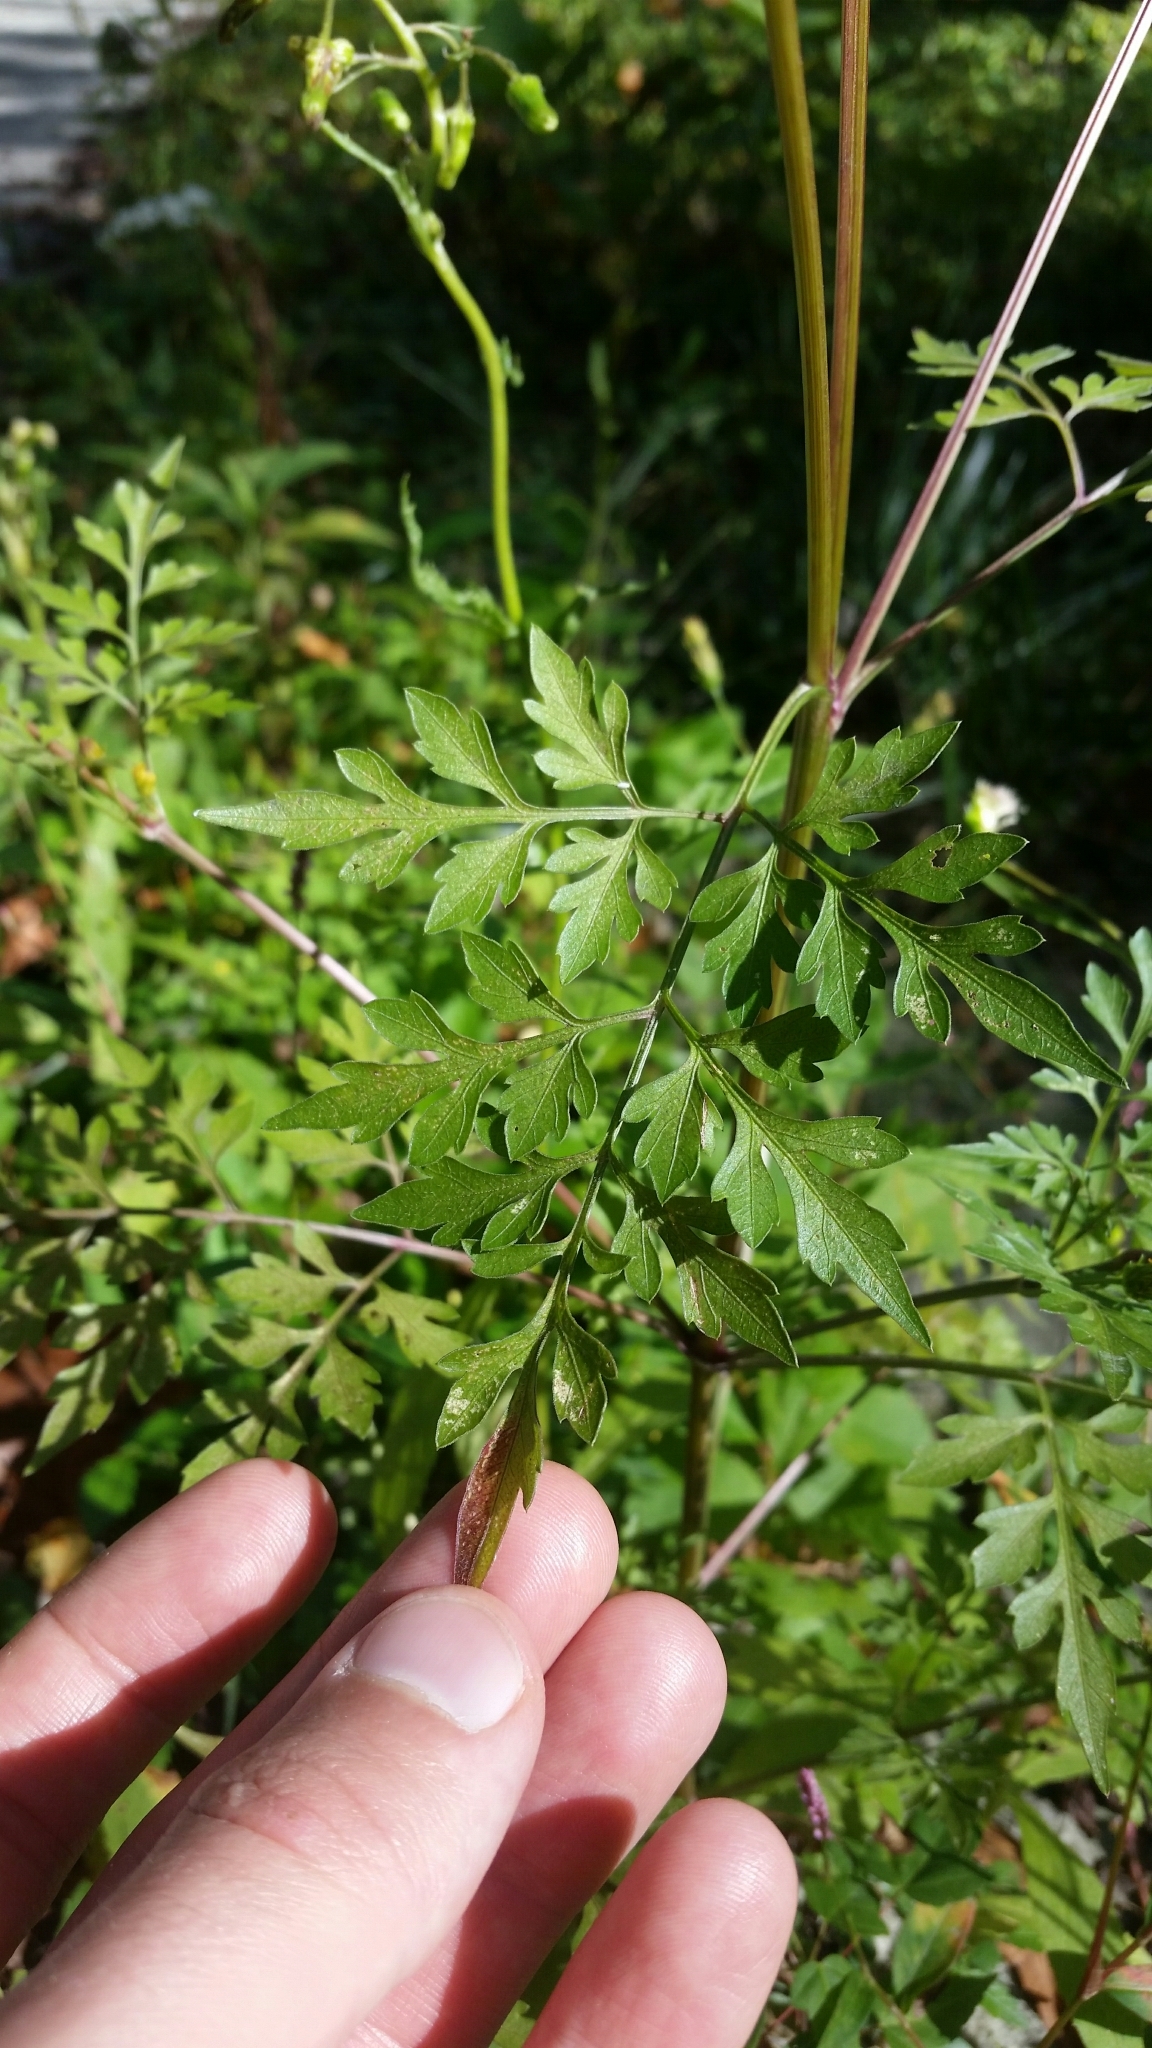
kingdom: Plantae
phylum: Tracheophyta
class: Magnoliopsida
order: Asterales
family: Asteraceae
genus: Bidens
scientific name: Bidens bipinnata
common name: Spanish-needles
